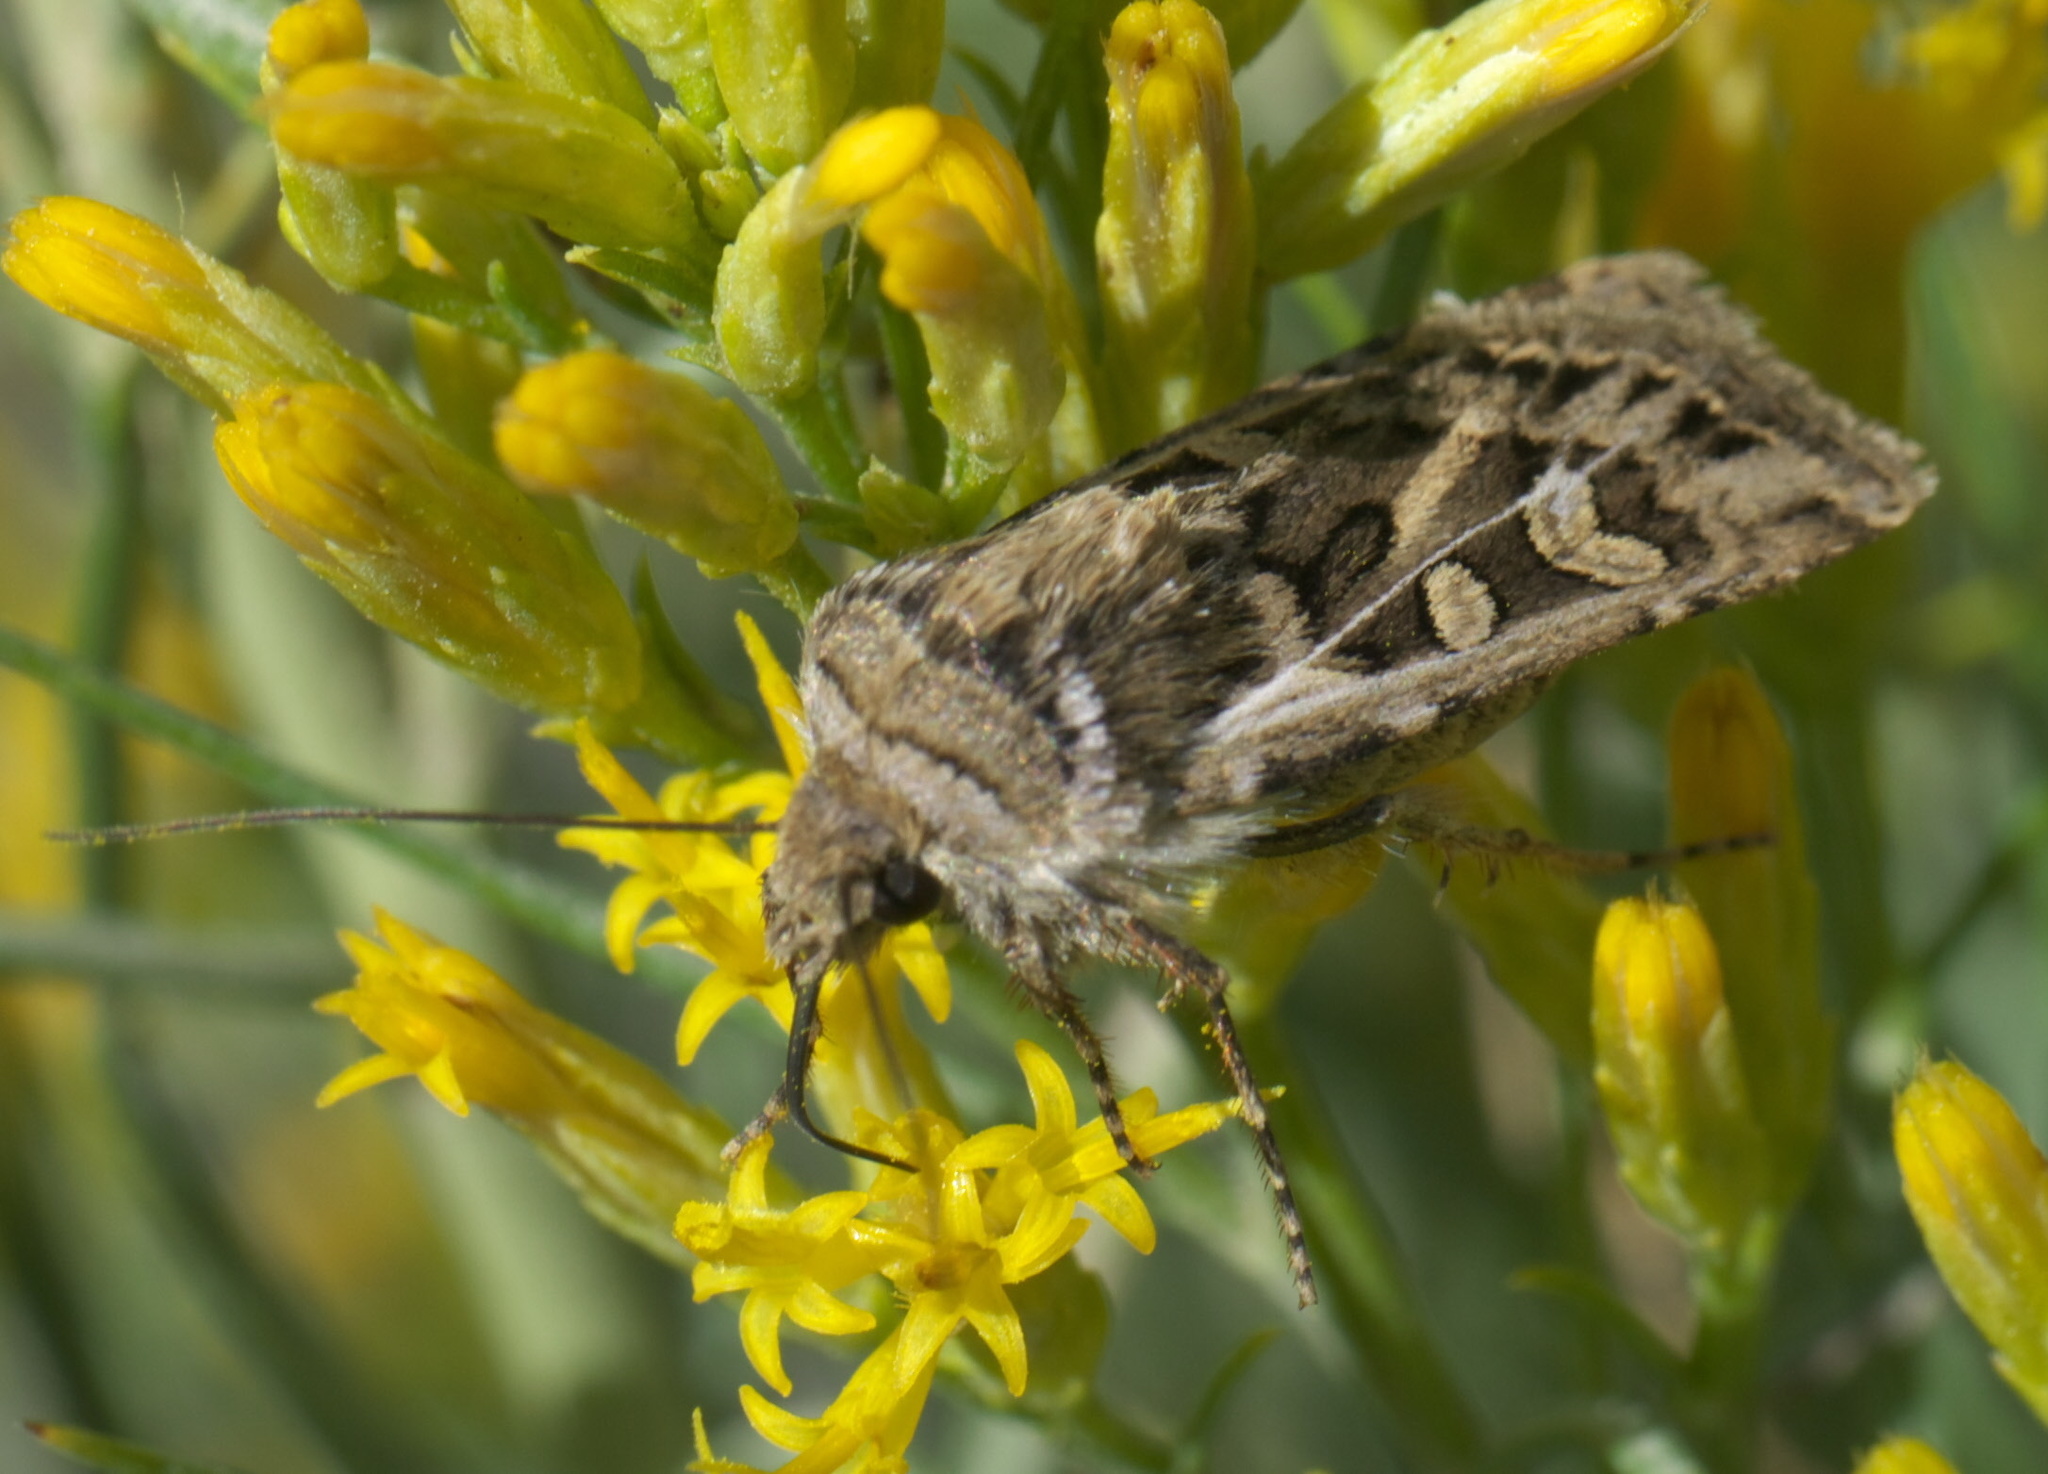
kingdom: Animalia
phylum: Arthropoda
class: Insecta
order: Lepidoptera
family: Noctuidae
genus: Euxoa
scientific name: Euxoa auxiliaris
